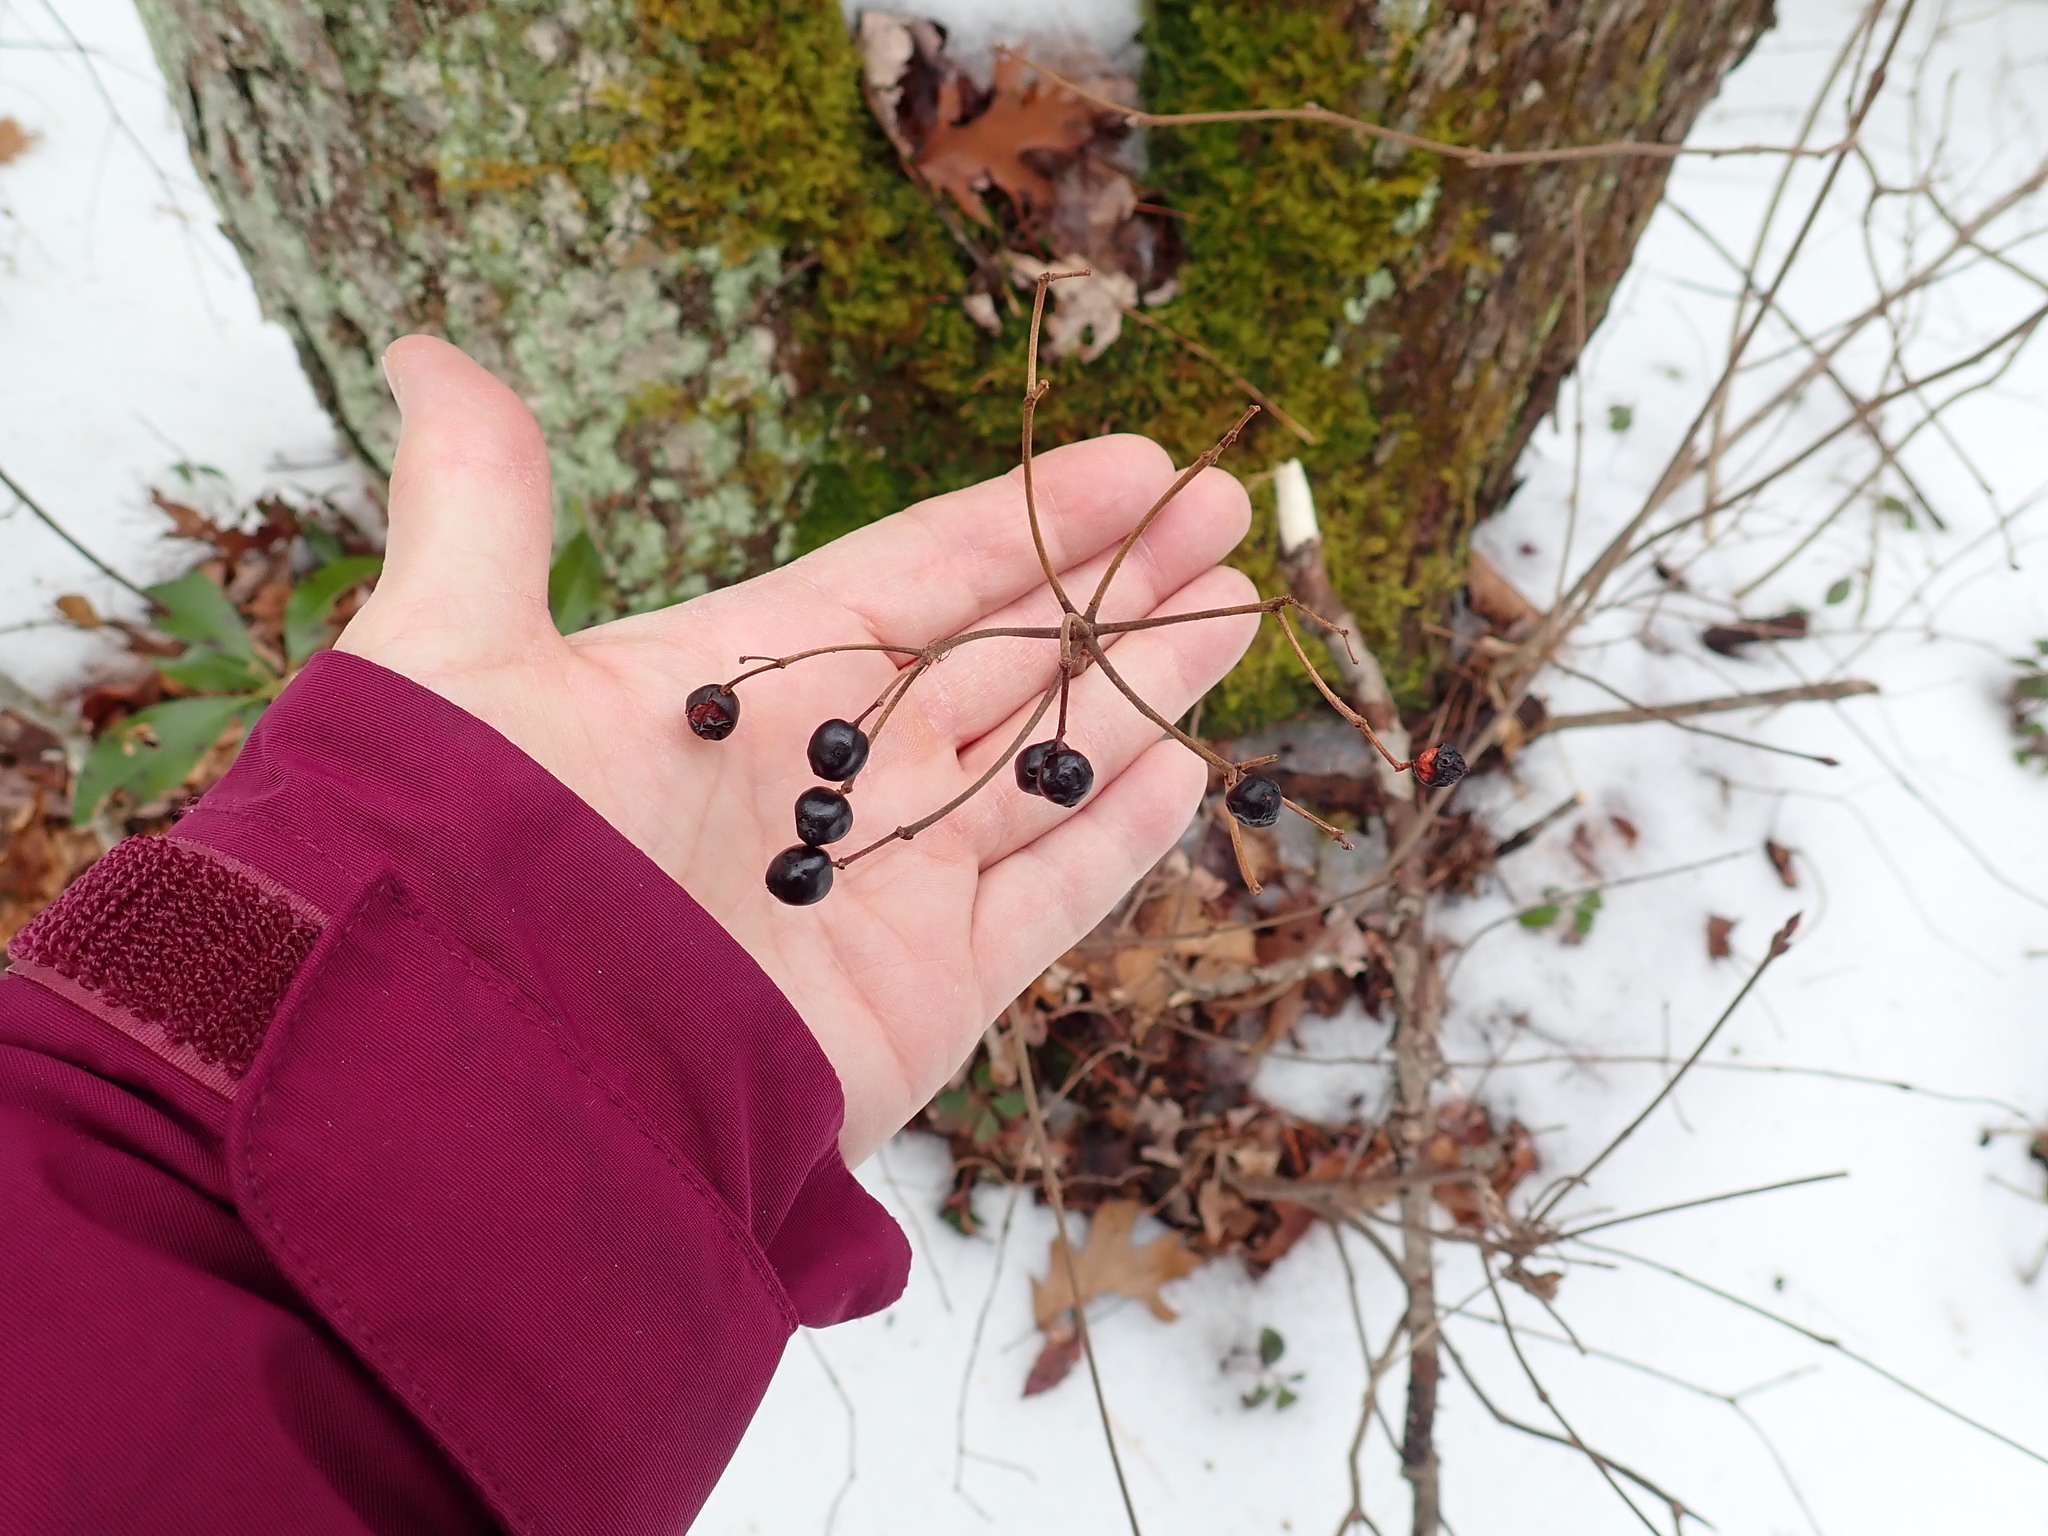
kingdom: Plantae
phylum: Tracheophyta
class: Magnoliopsida
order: Dipsacales
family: Viburnaceae
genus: Viburnum
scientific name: Viburnum acerifolium
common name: Dockmackie
